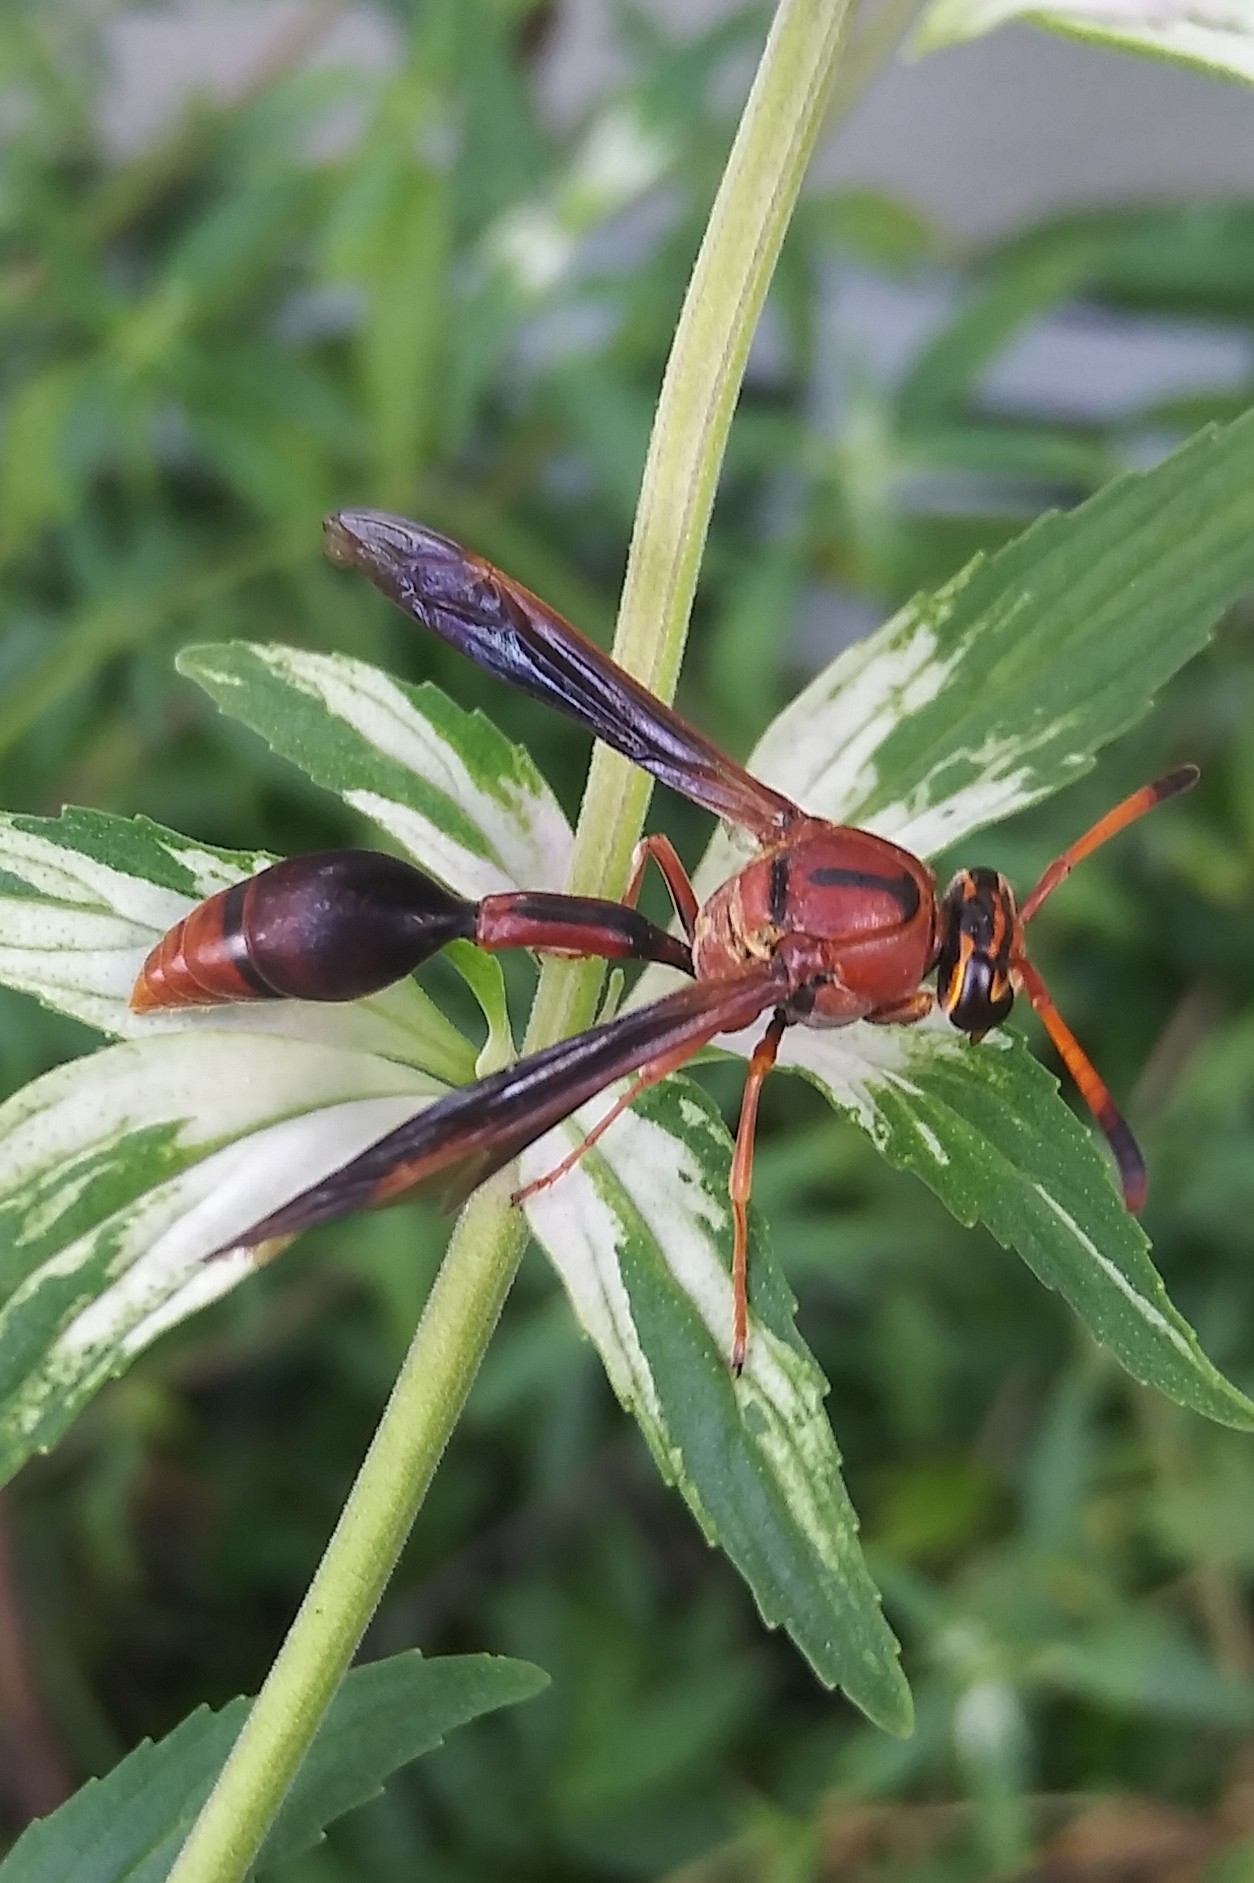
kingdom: Animalia
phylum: Arthropoda
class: Insecta
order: Hymenoptera
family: Eumenidae
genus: Zeta
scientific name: Zeta argillaceum
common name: Potter wasp
